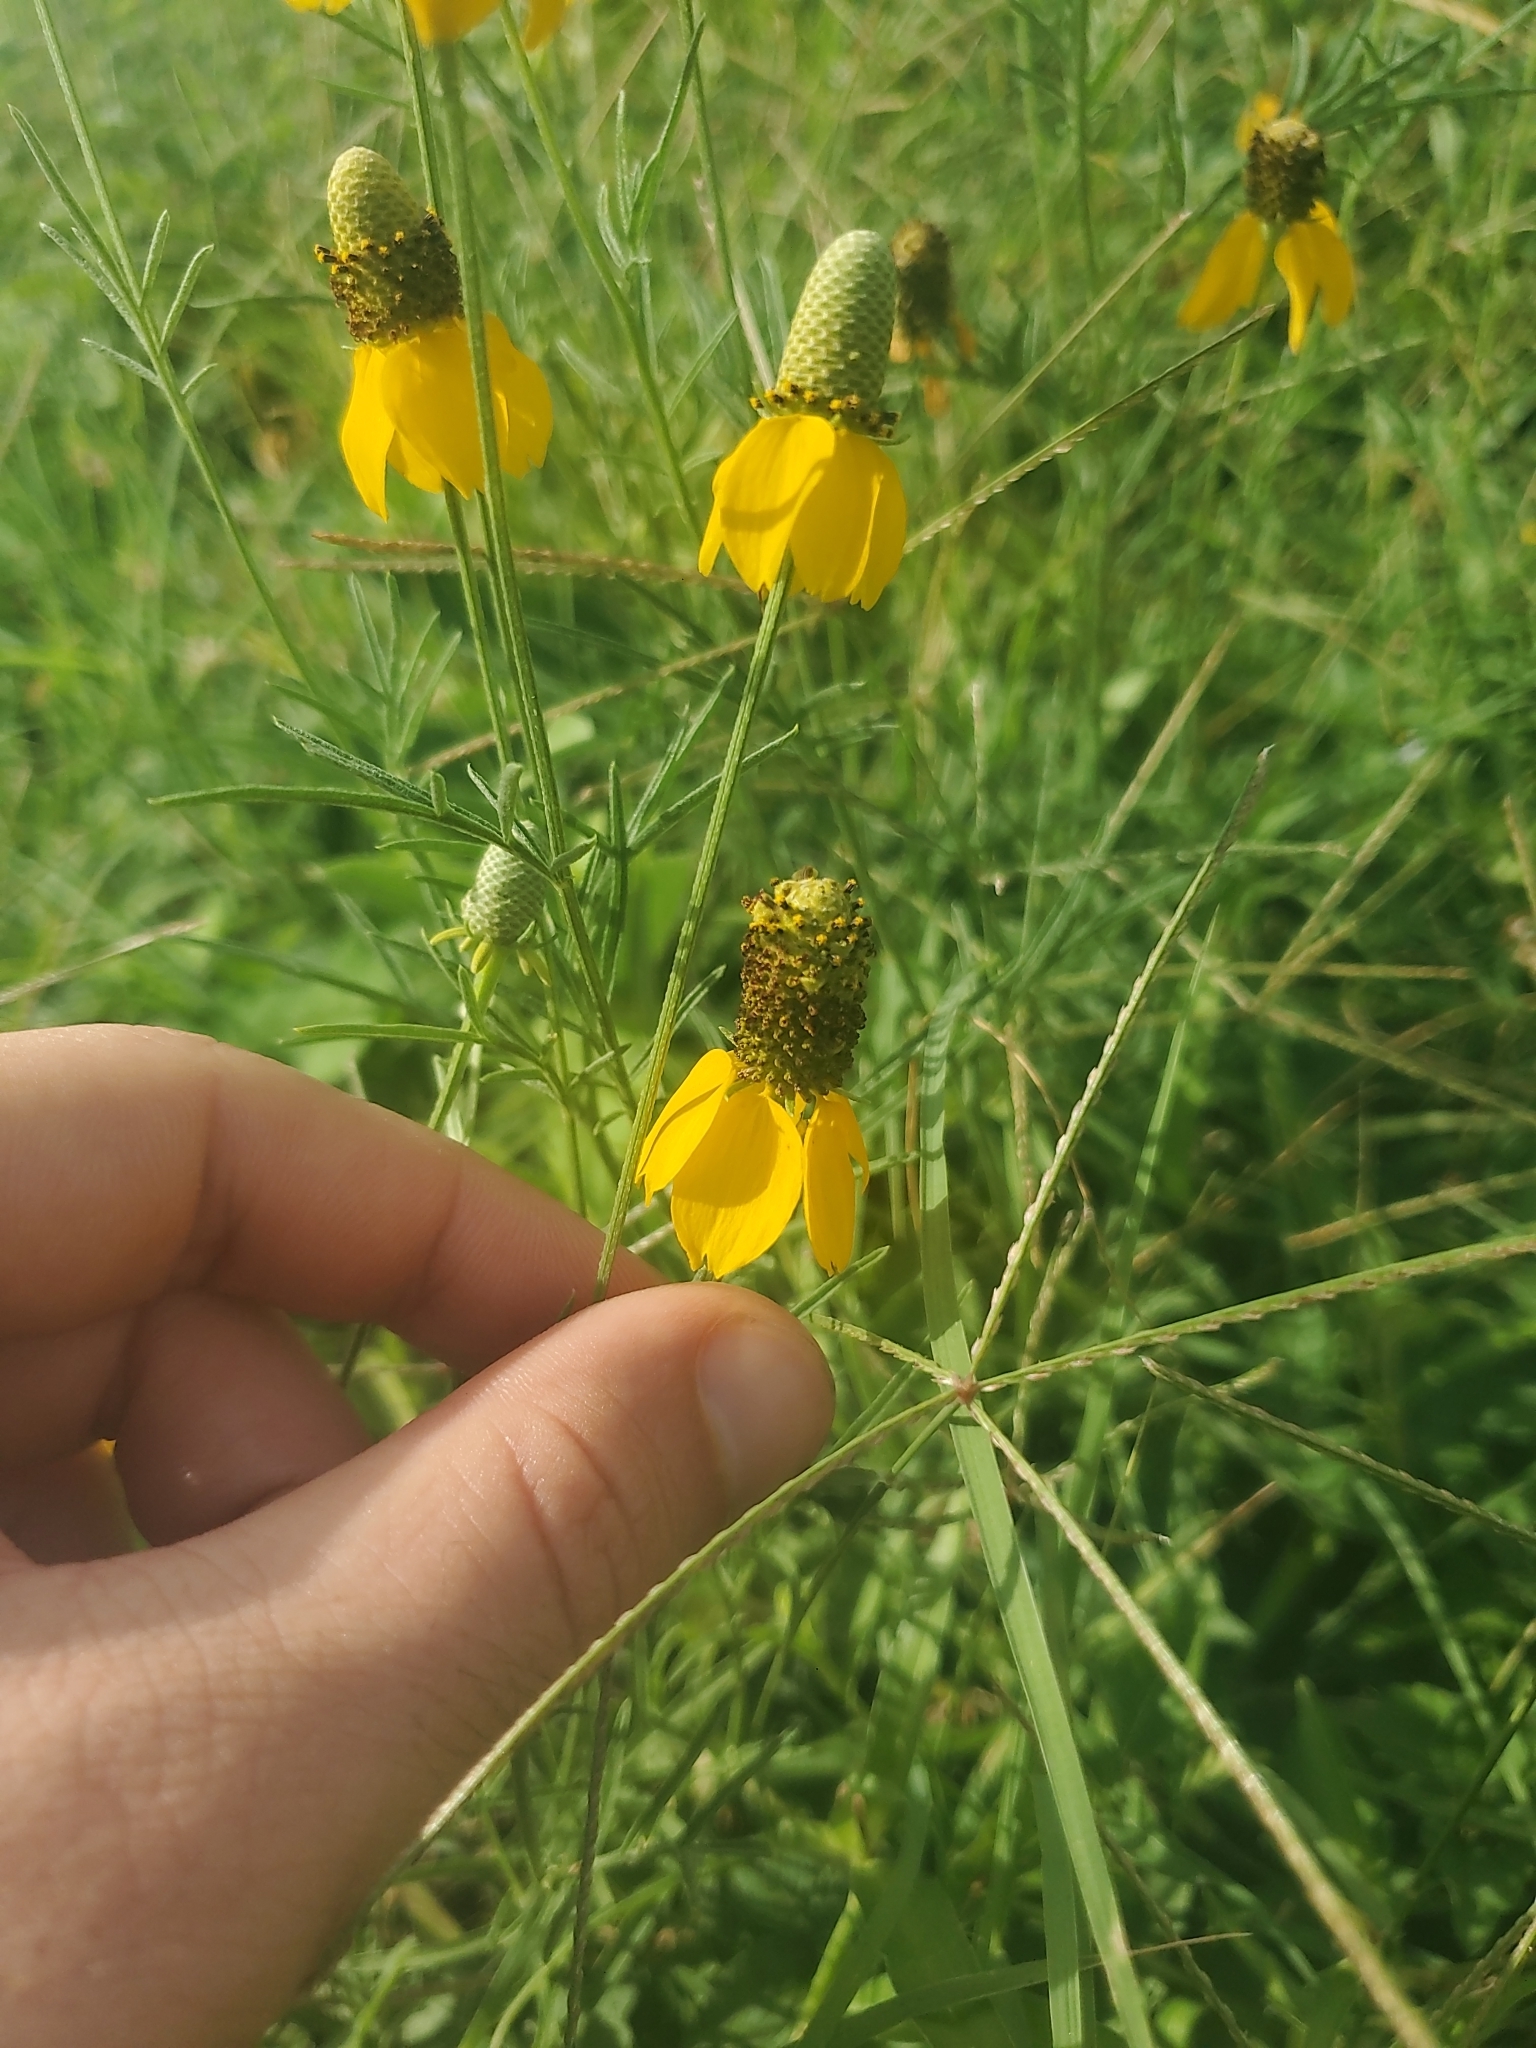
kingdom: Plantae
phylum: Tracheophyta
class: Magnoliopsida
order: Asterales
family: Asteraceae
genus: Ratibida
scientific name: Ratibida columnifera
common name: Prairie coneflower
